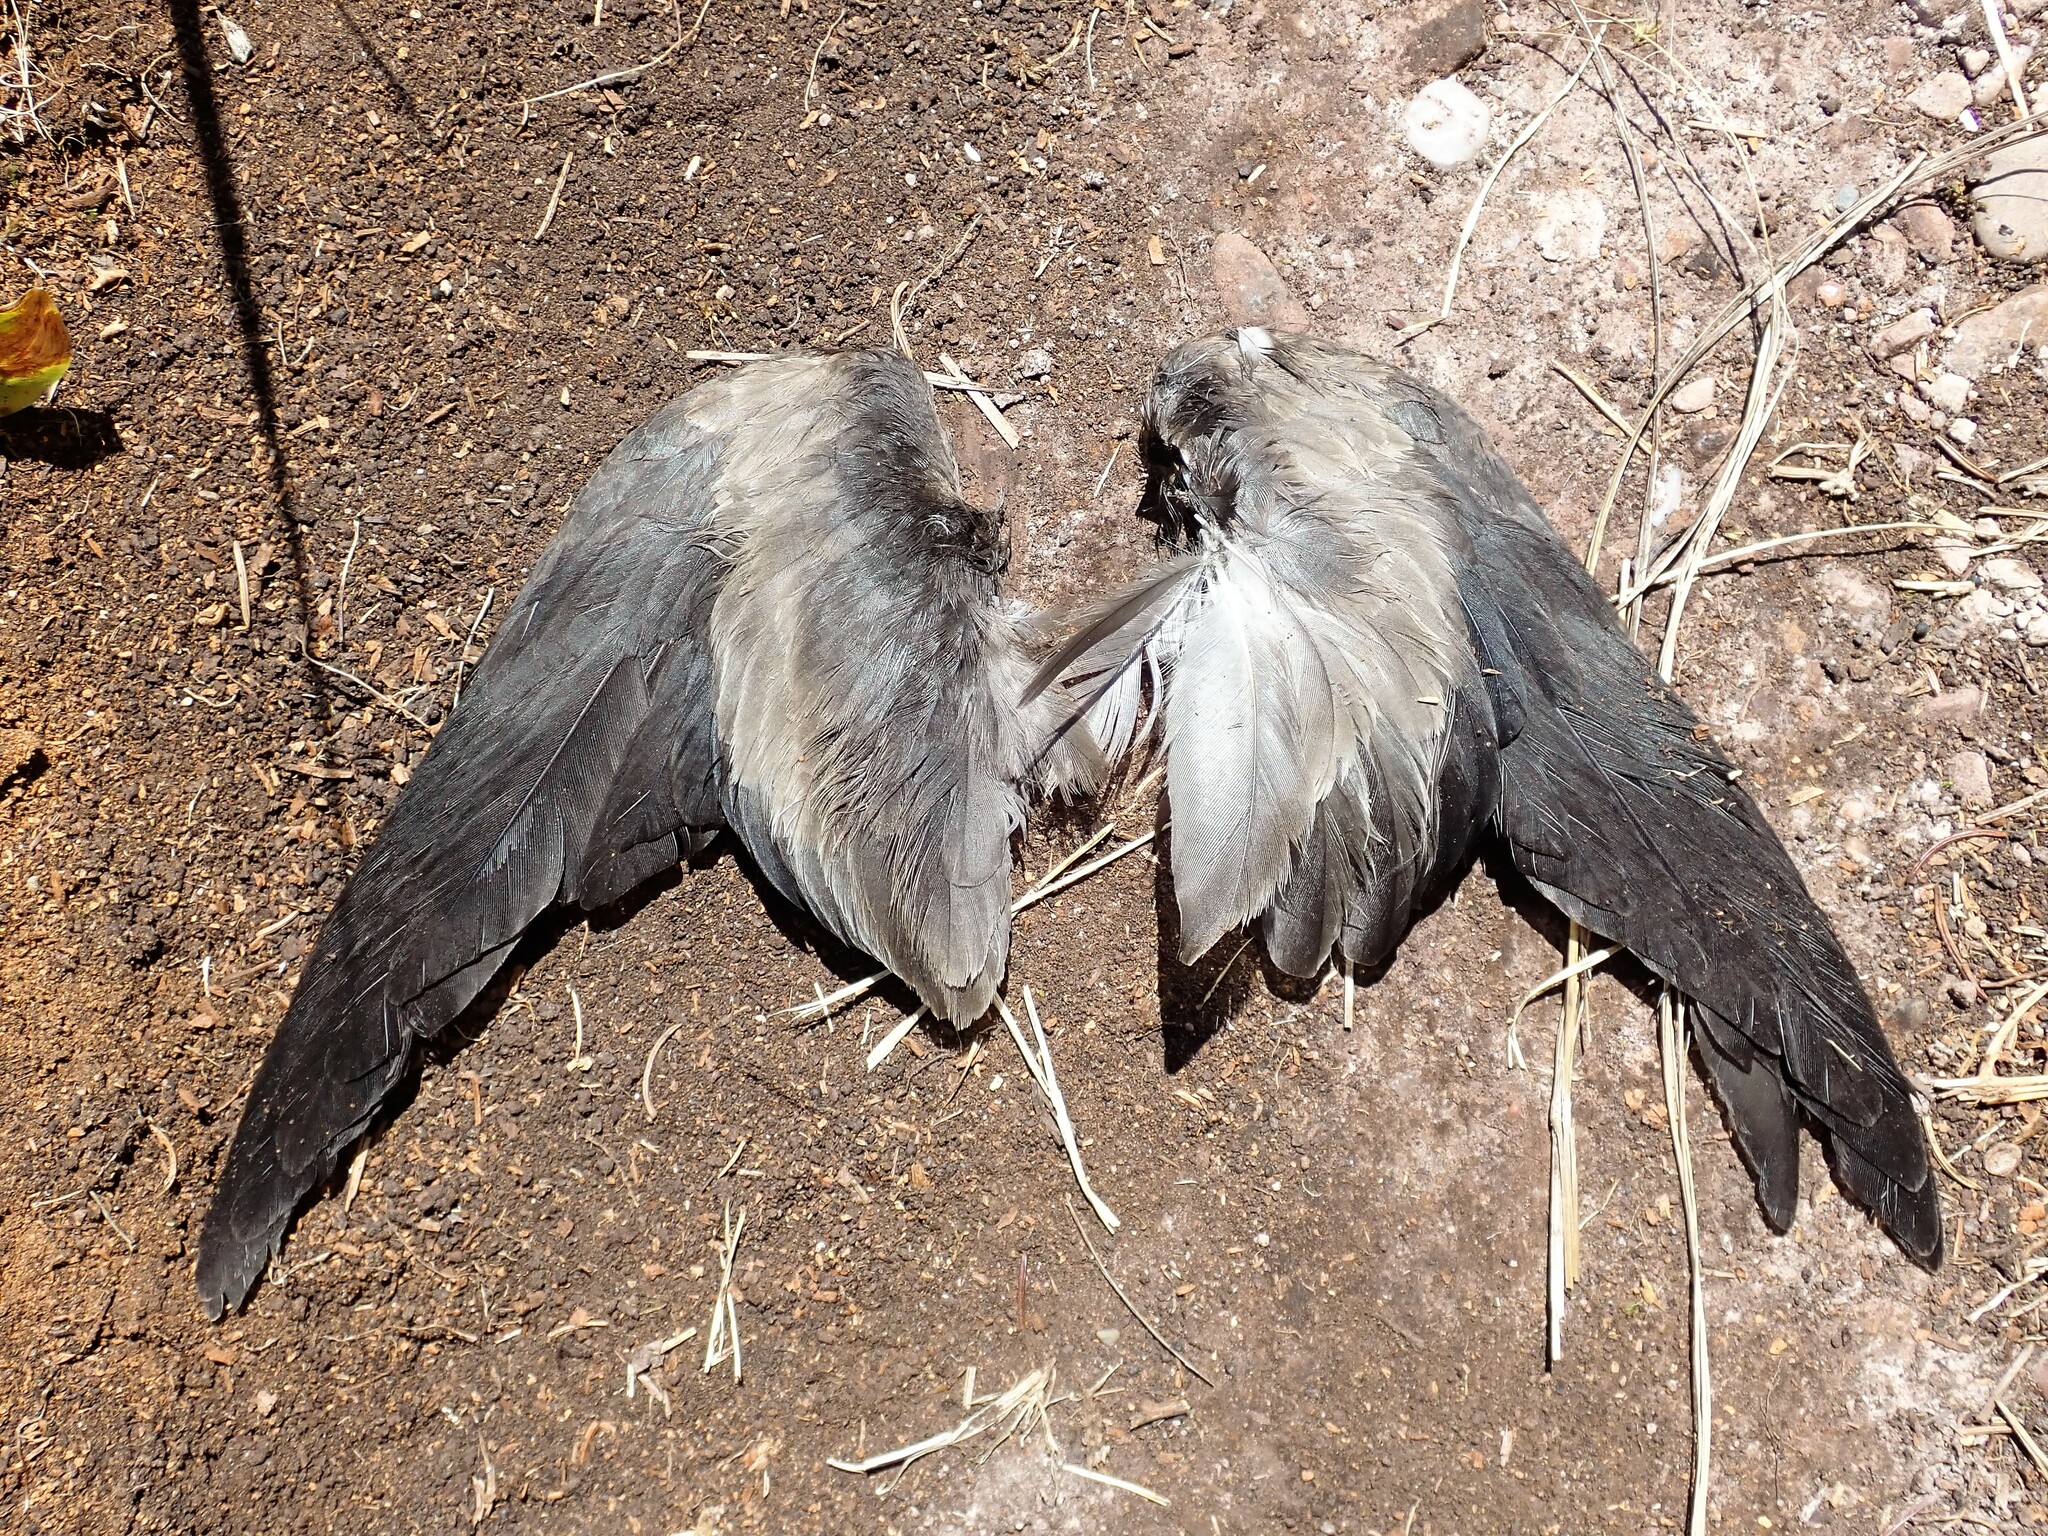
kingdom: Animalia
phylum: Chordata
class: Aves
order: Procellariiformes
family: Hydrobatidae
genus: Oceanodroma
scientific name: Oceanodroma leucorhoa
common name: Leach's storm-petrel
